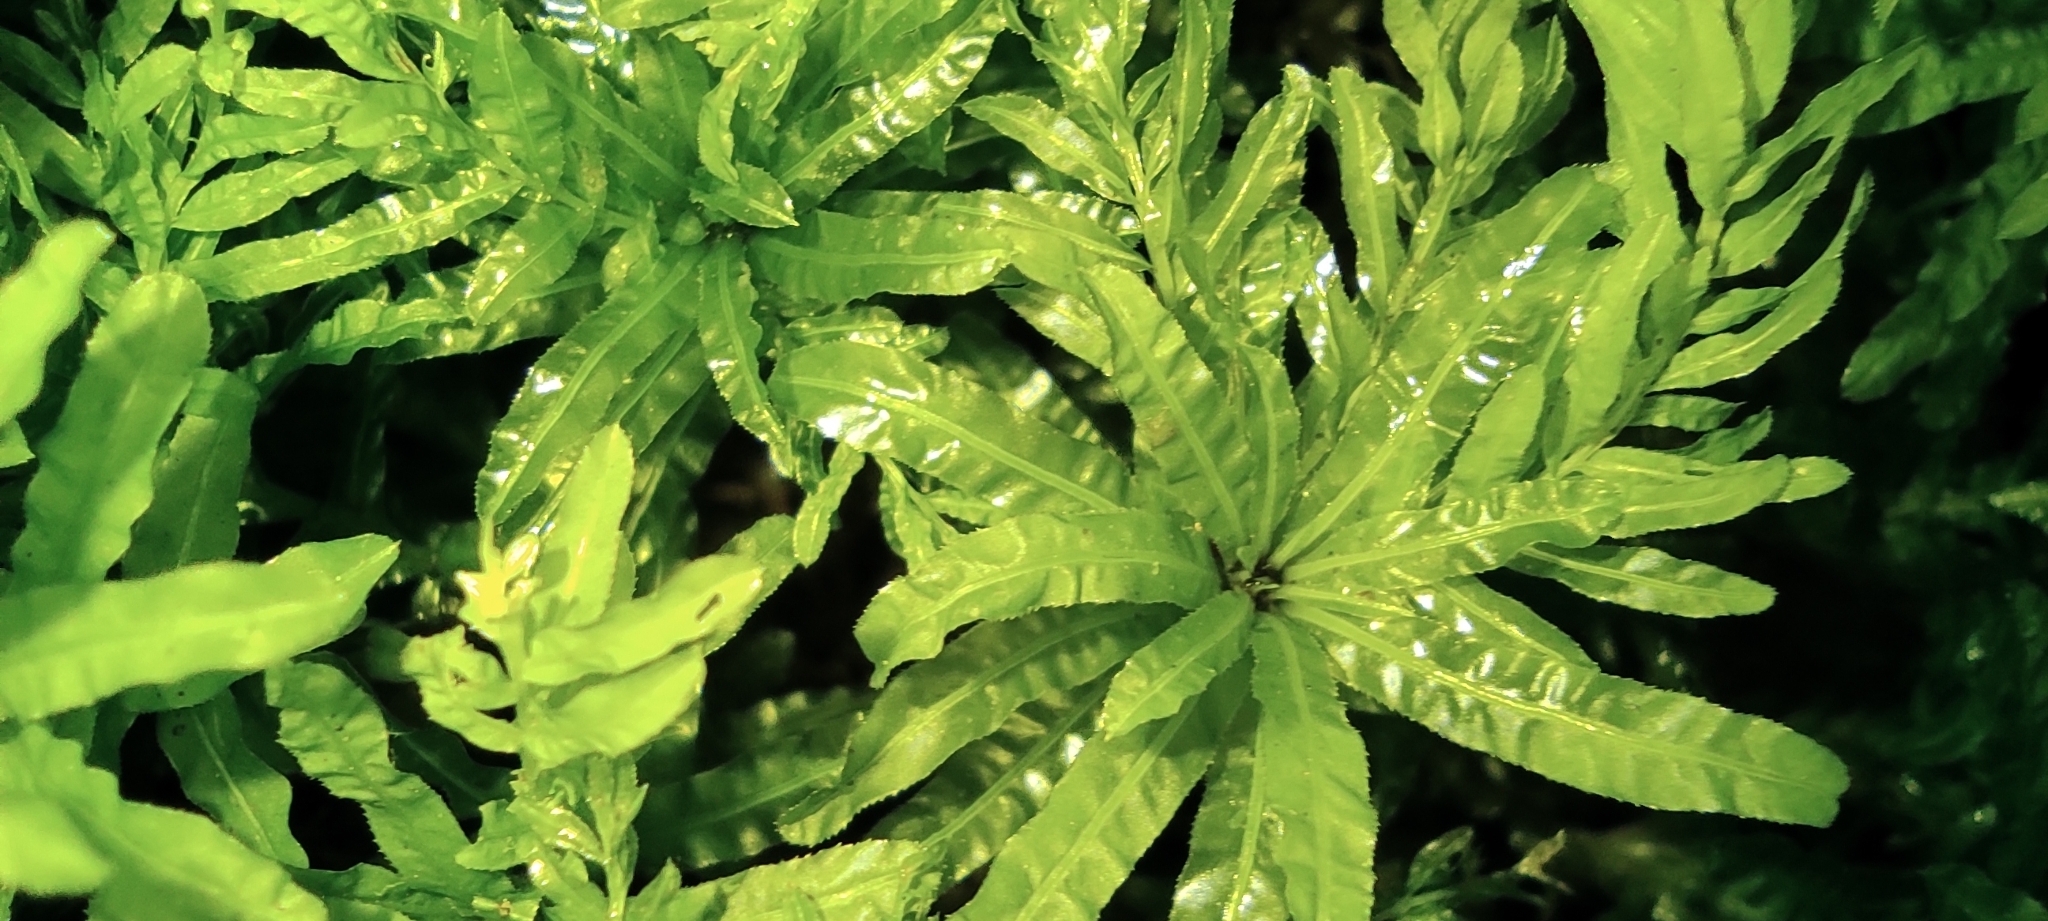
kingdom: Plantae
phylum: Bryophyta
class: Bryopsida
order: Bryales
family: Mniaceae
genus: Plagiomnium
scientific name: Plagiomnium undulatum
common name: Hart's-tongue thyme-moss
